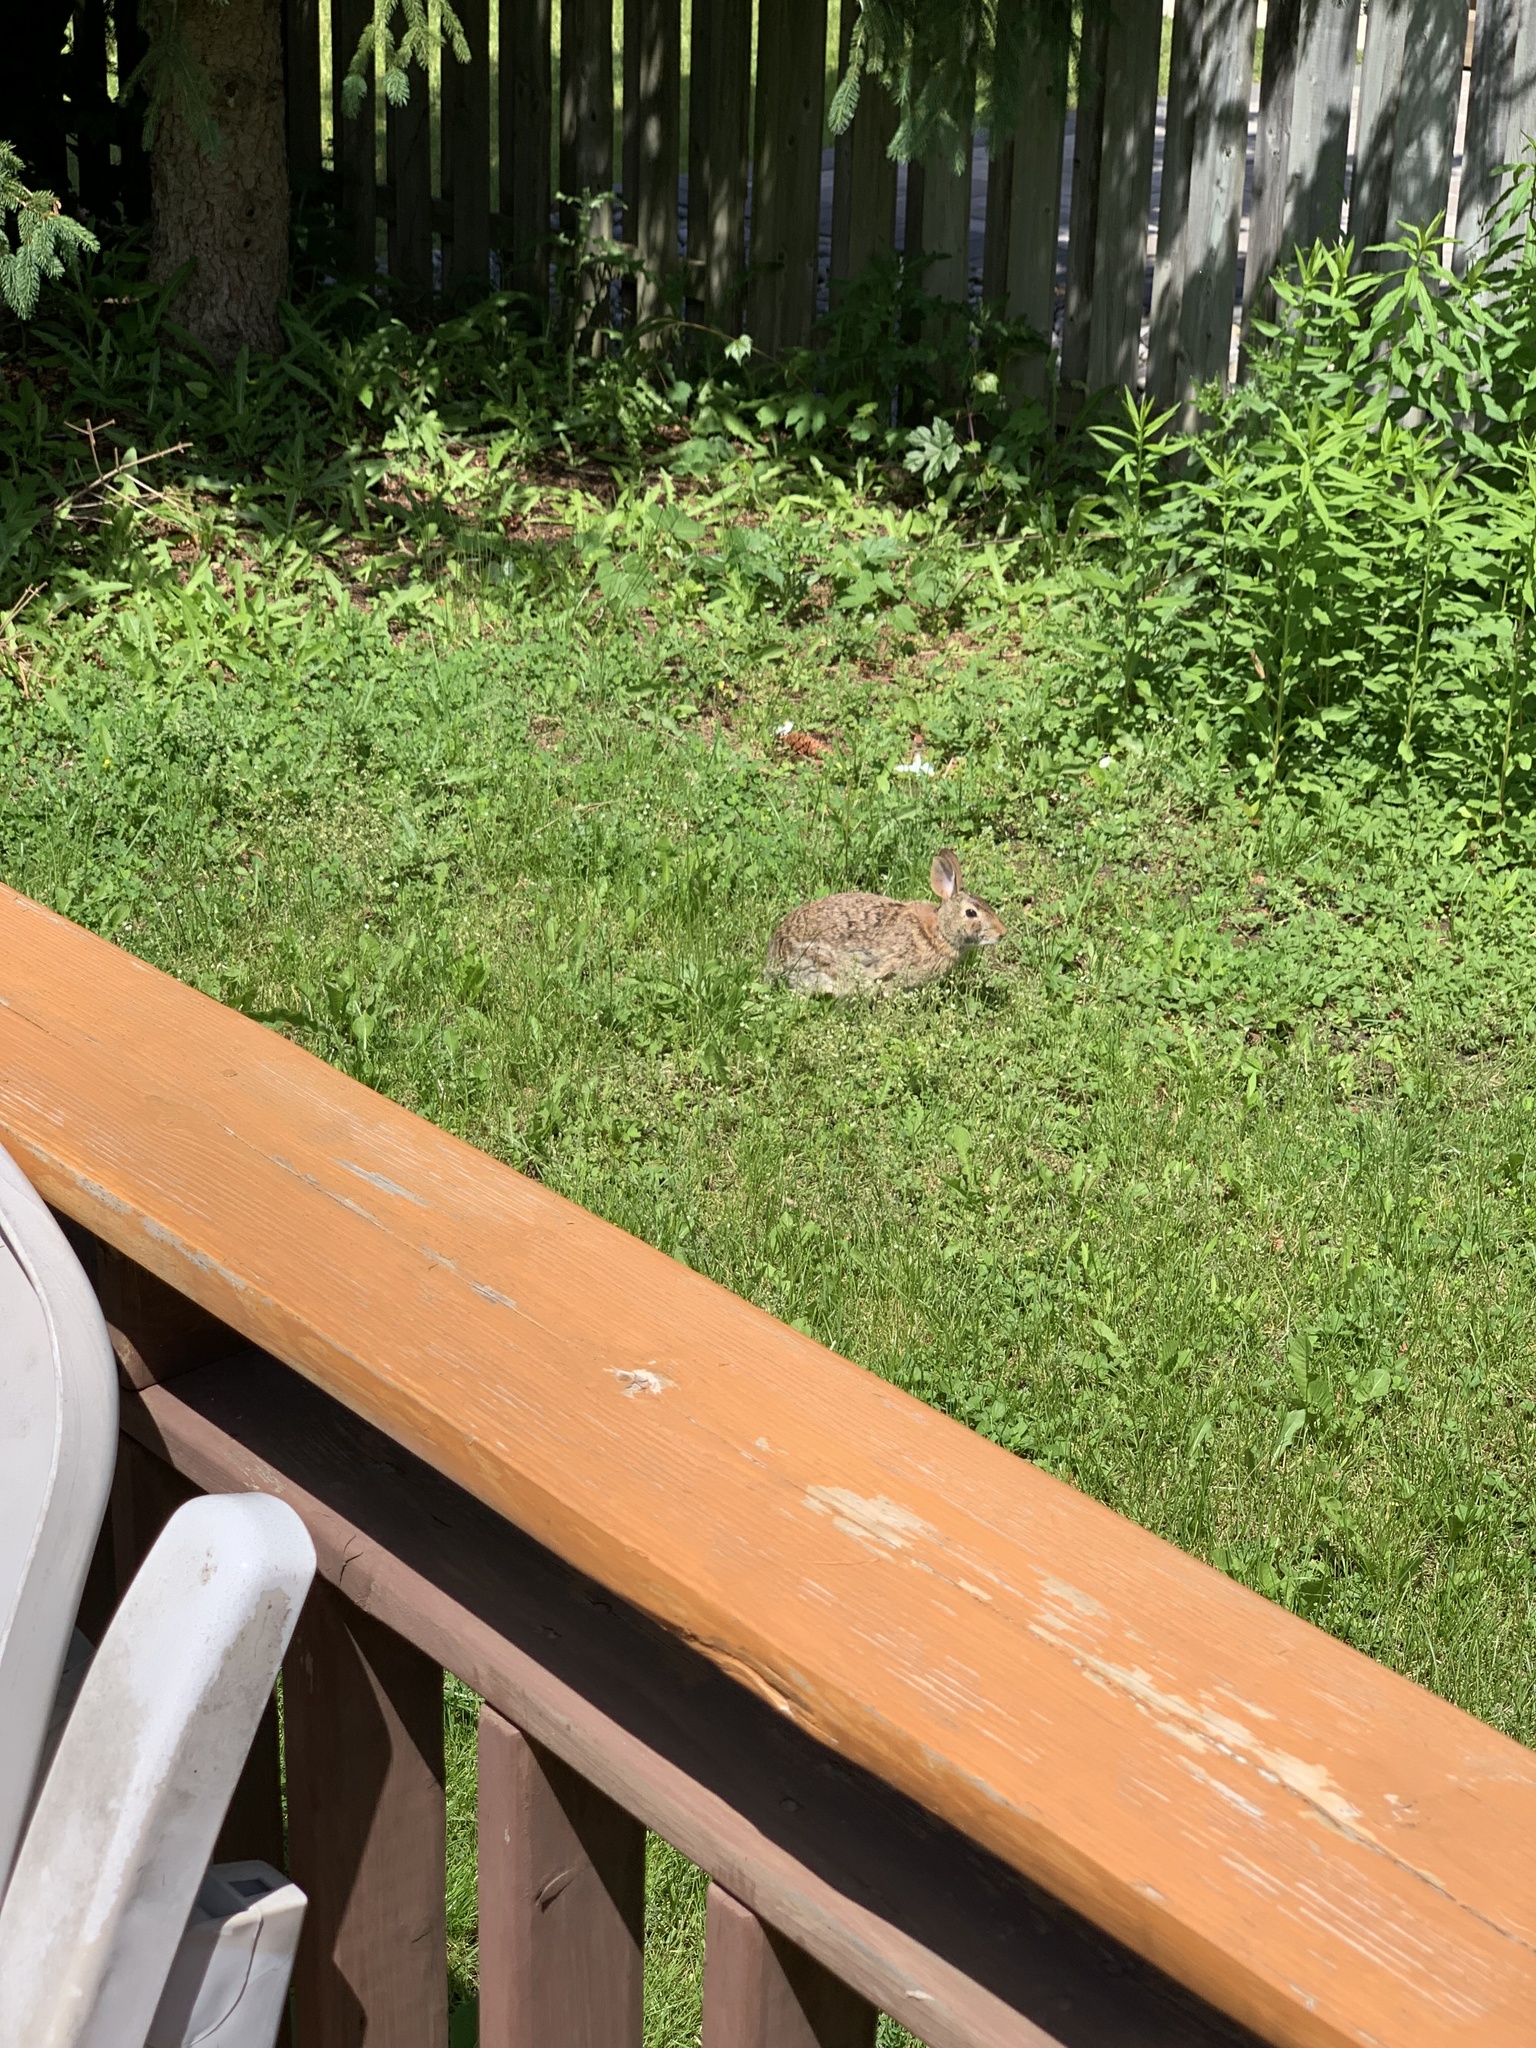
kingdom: Animalia
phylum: Chordata
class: Mammalia
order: Lagomorpha
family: Leporidae
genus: Sylvilagus
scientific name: Sylvilagus floridanus
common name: Eastern cottontail
